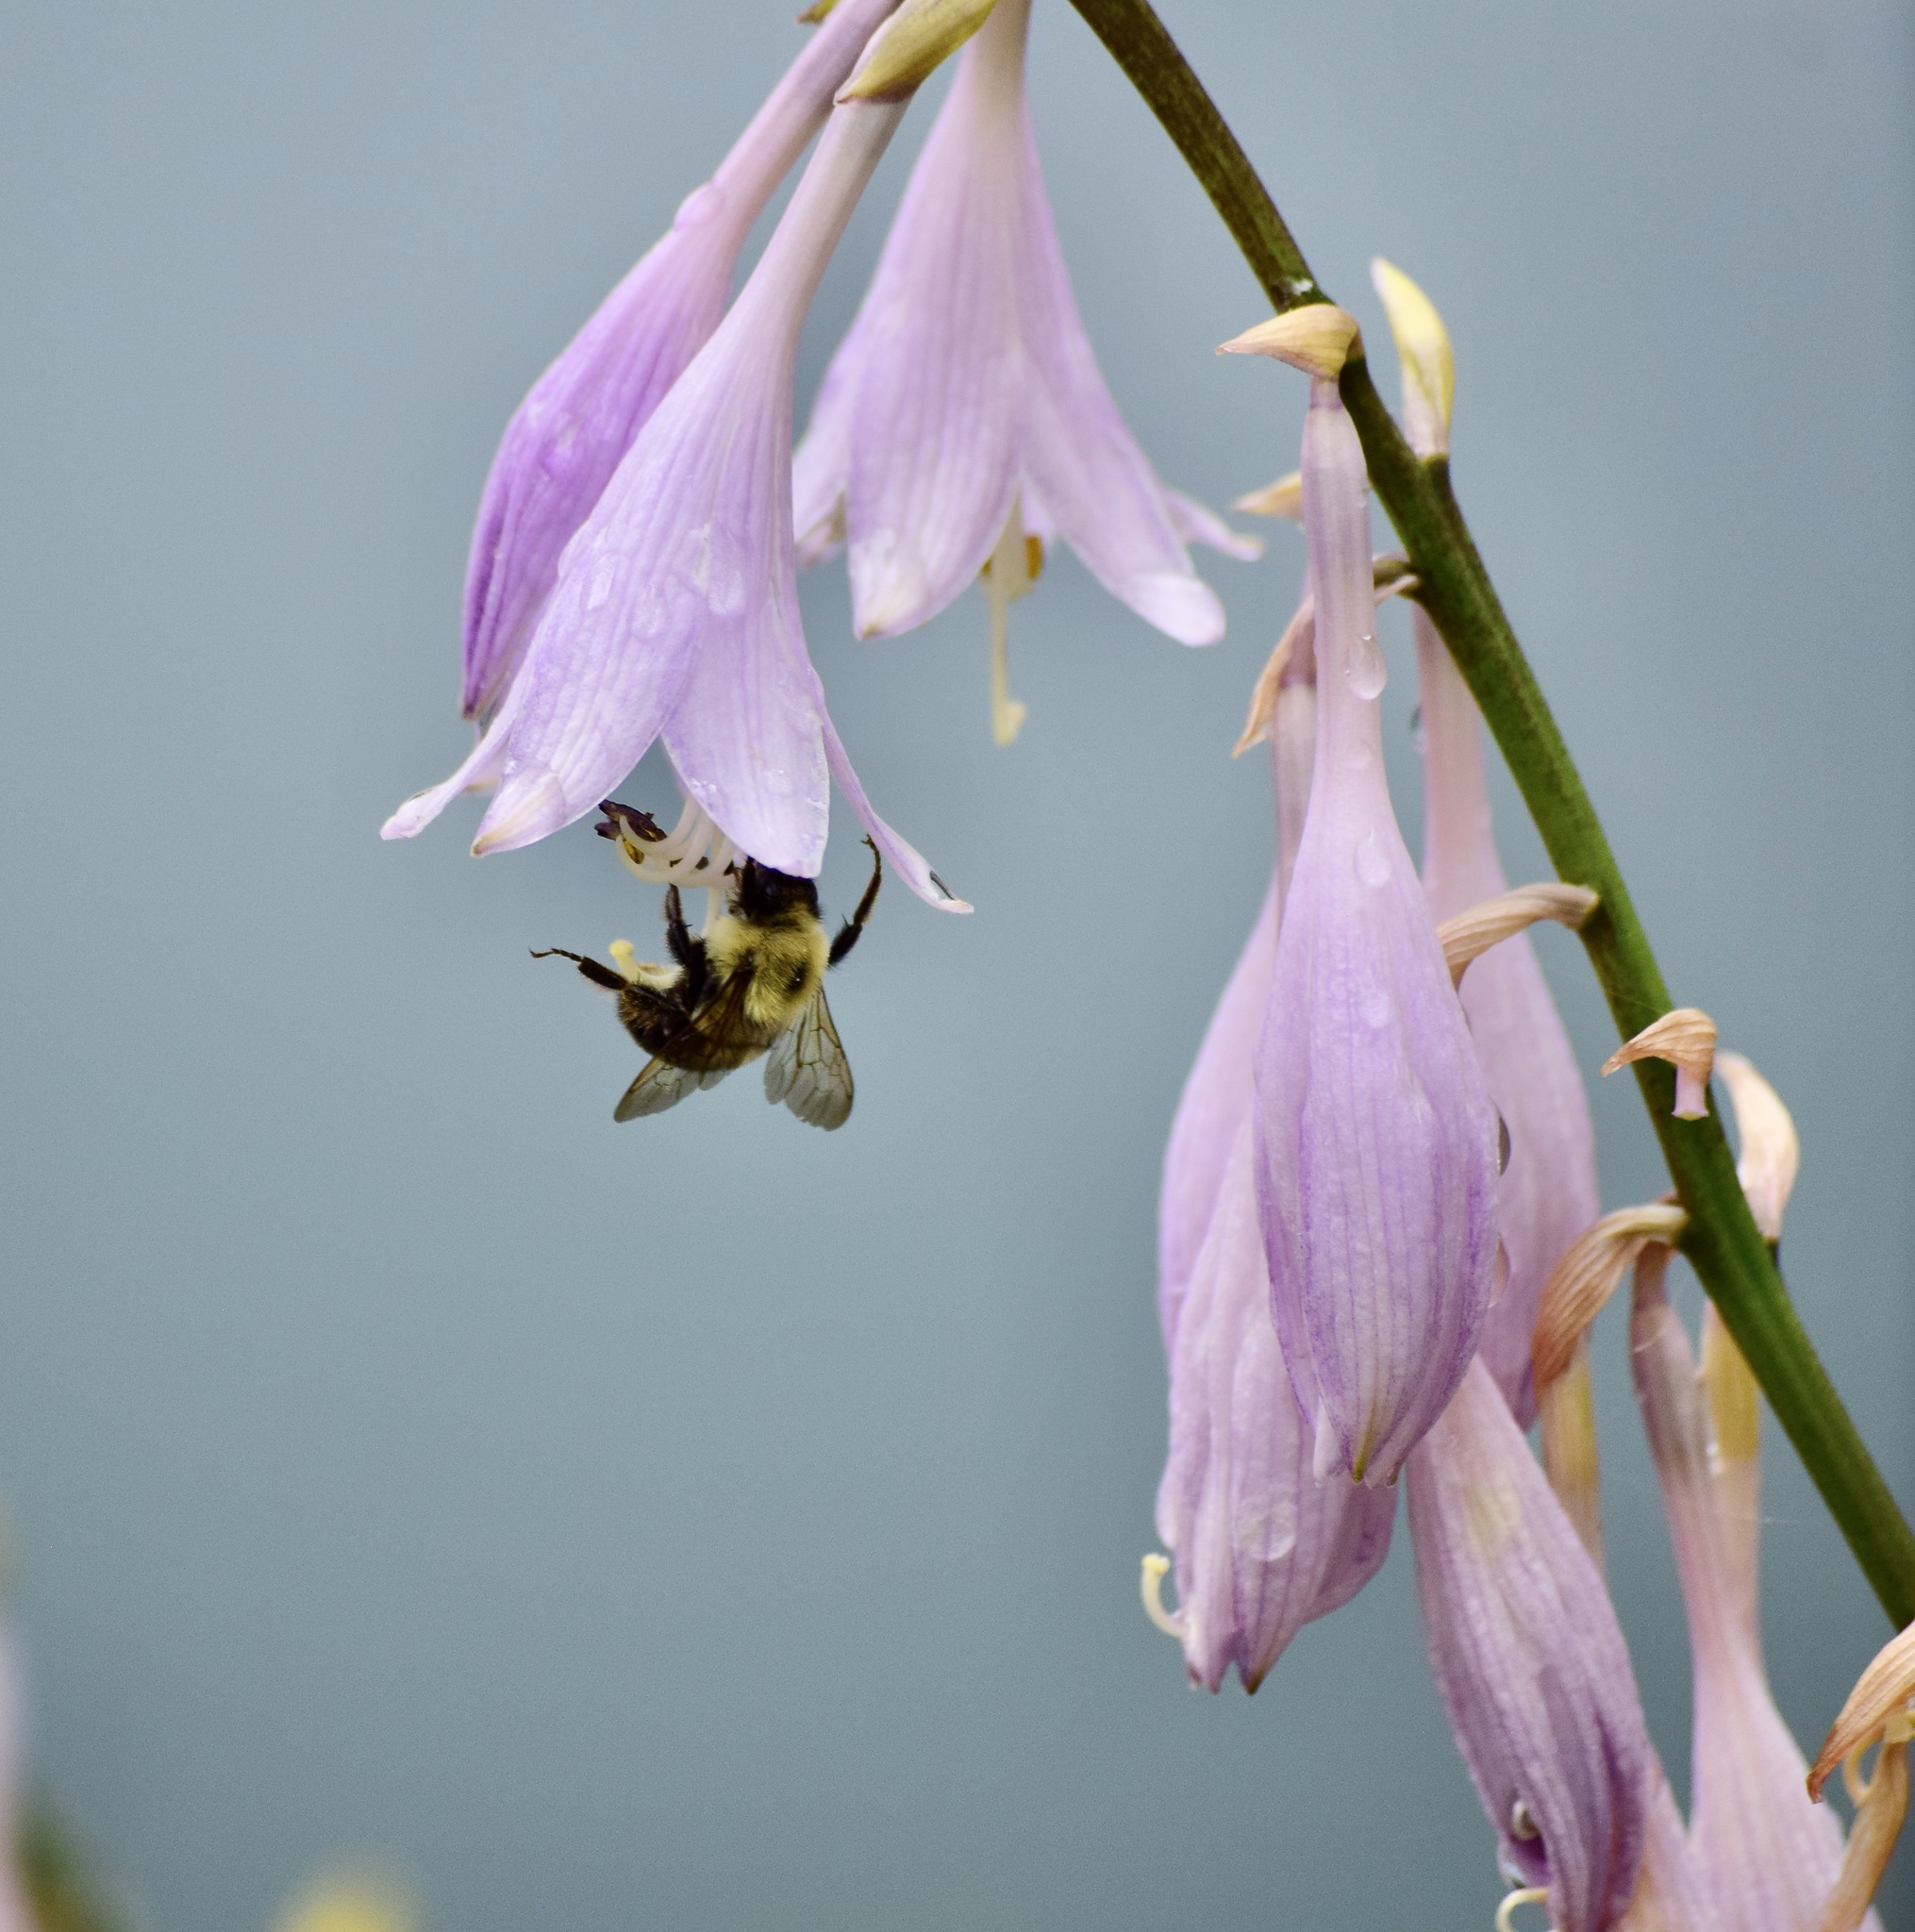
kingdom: Animalia
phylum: Arthropoda
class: Insecta
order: Hymenoptera
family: Apidae
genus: Bombus
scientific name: Bombus bimaculatus
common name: Two-spotted bumble bee
